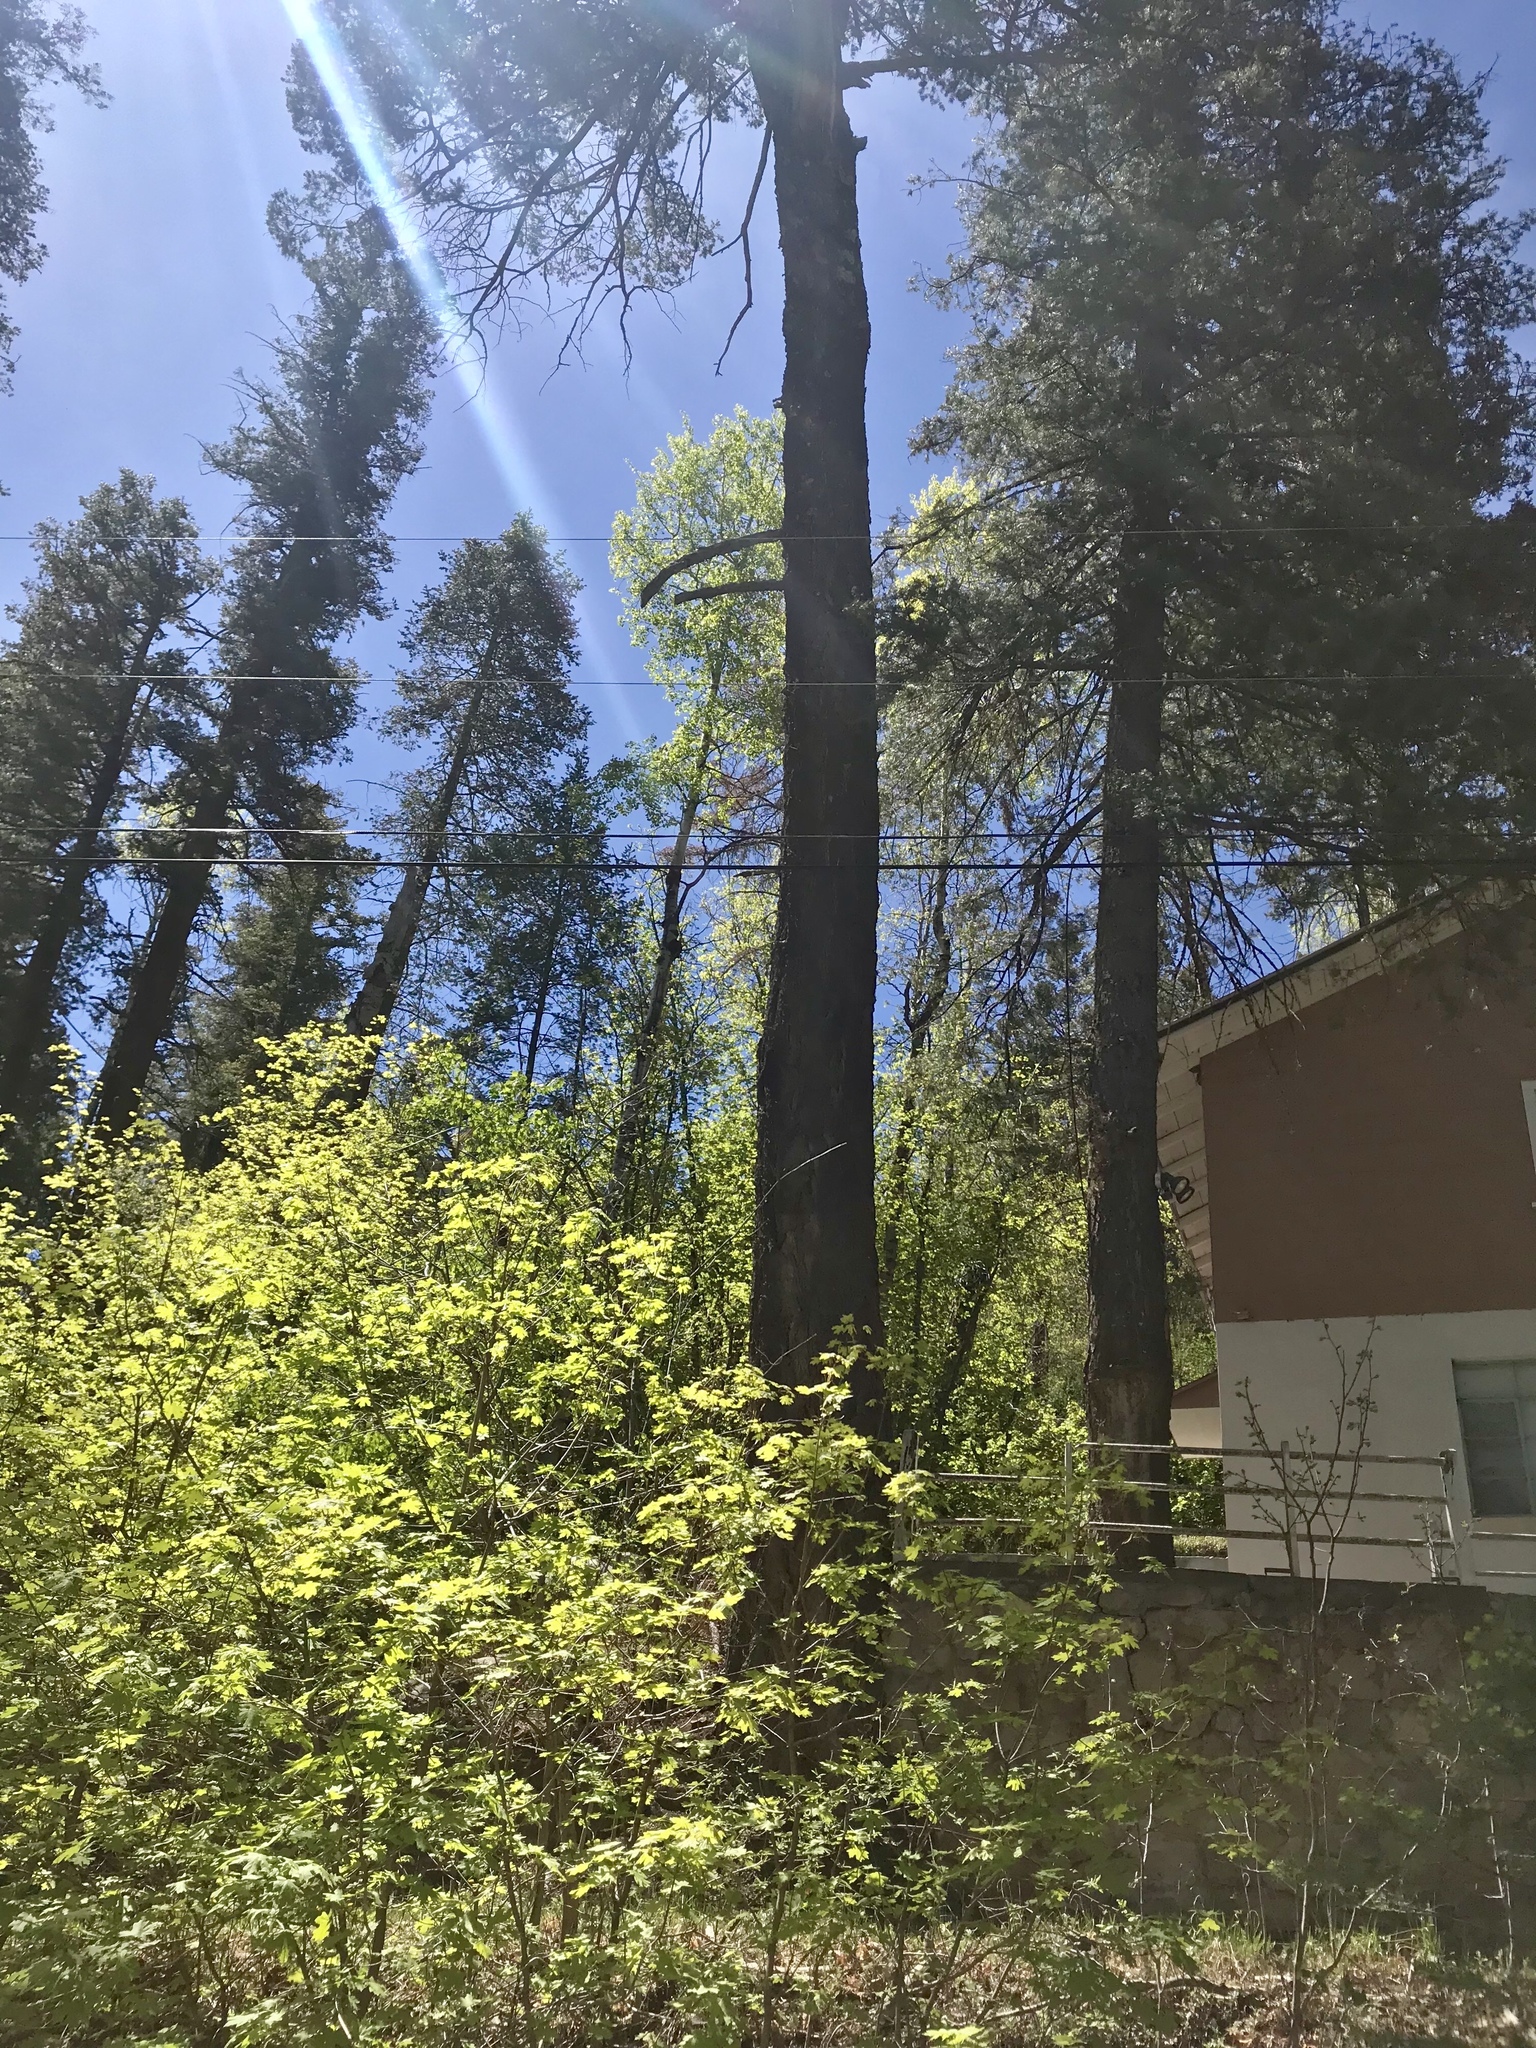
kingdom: Plantae
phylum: Tracheophyta
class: Pinopsida
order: Pinales
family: Pinaceae
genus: Pseudotsuga
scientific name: Pseudotsuga menziesii
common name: Douglas fir
